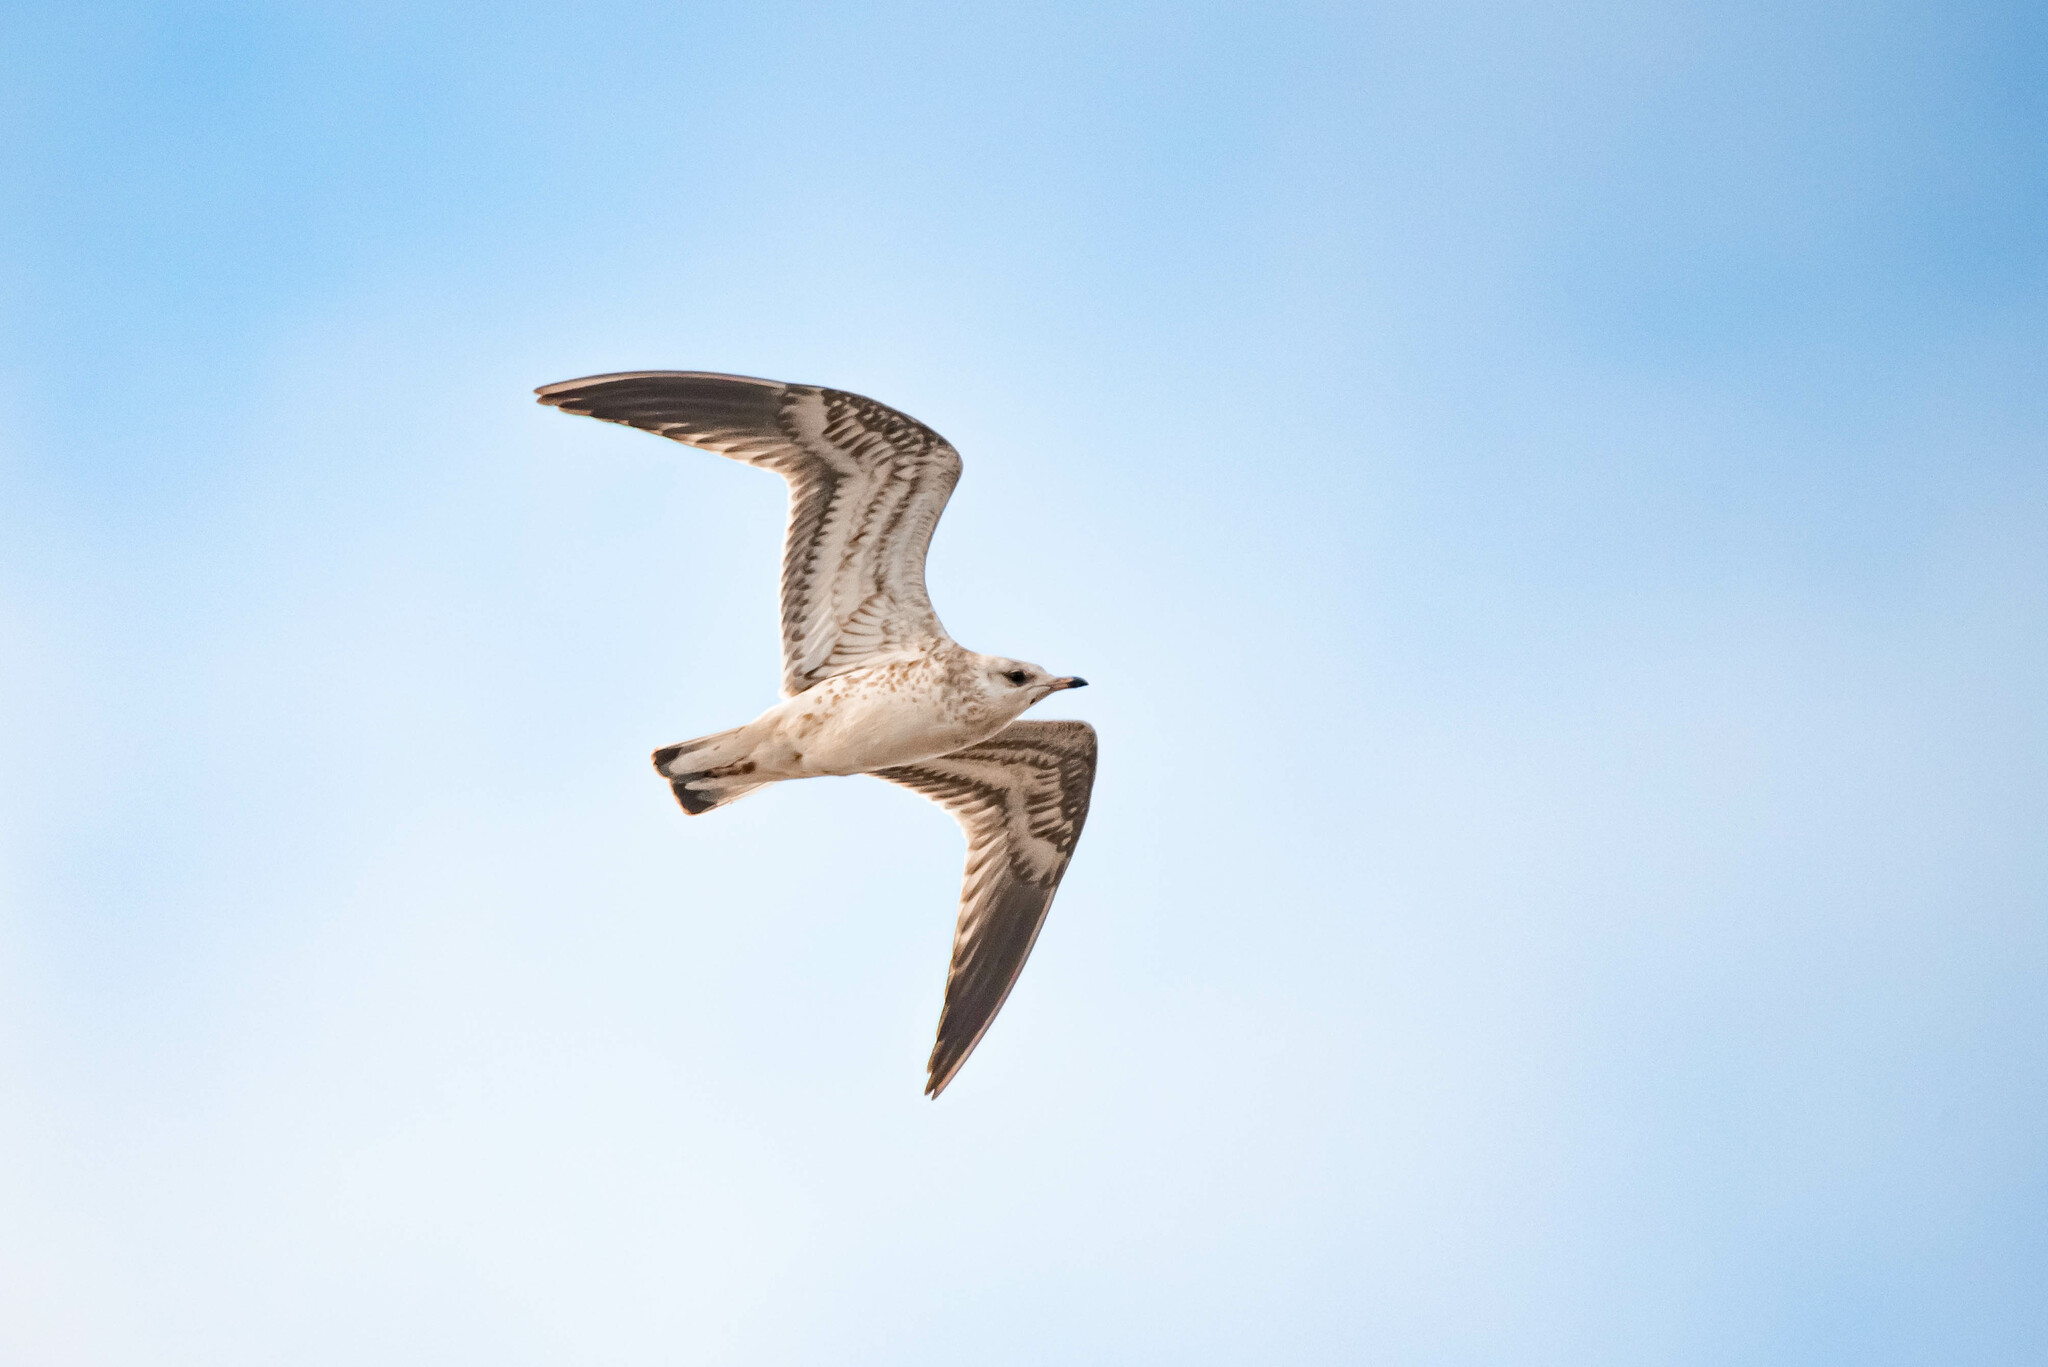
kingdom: Animalia
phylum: Chordata
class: Aves
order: Charadriiformes
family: Laridae
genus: Larus
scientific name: Larus canus
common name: Mew gull
